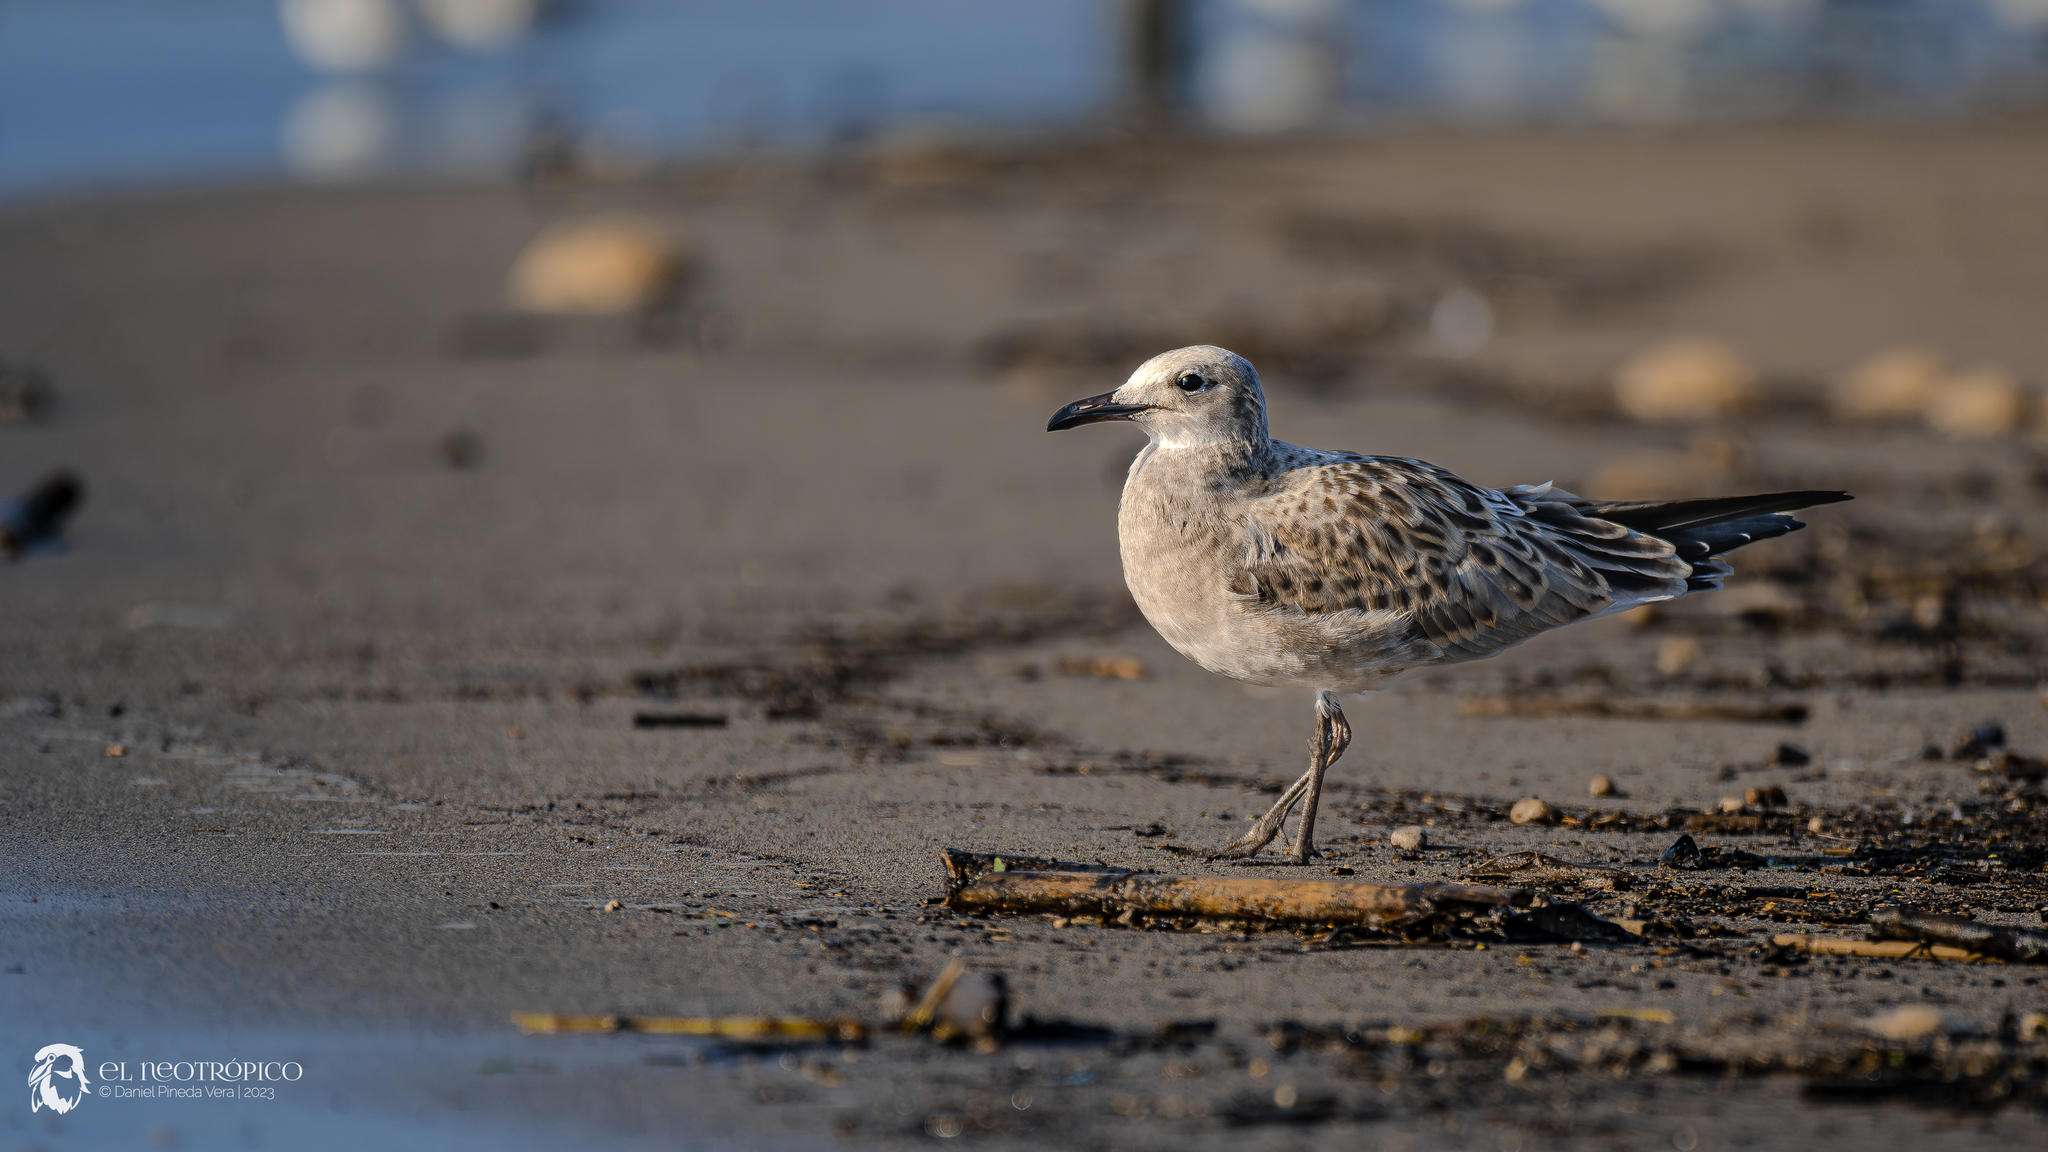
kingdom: Animalia
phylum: Chordata
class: Aves
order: Charadriiformes
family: Laridae
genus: Leucophaeus
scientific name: Leucophaeus atricilla
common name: Laughing gull
